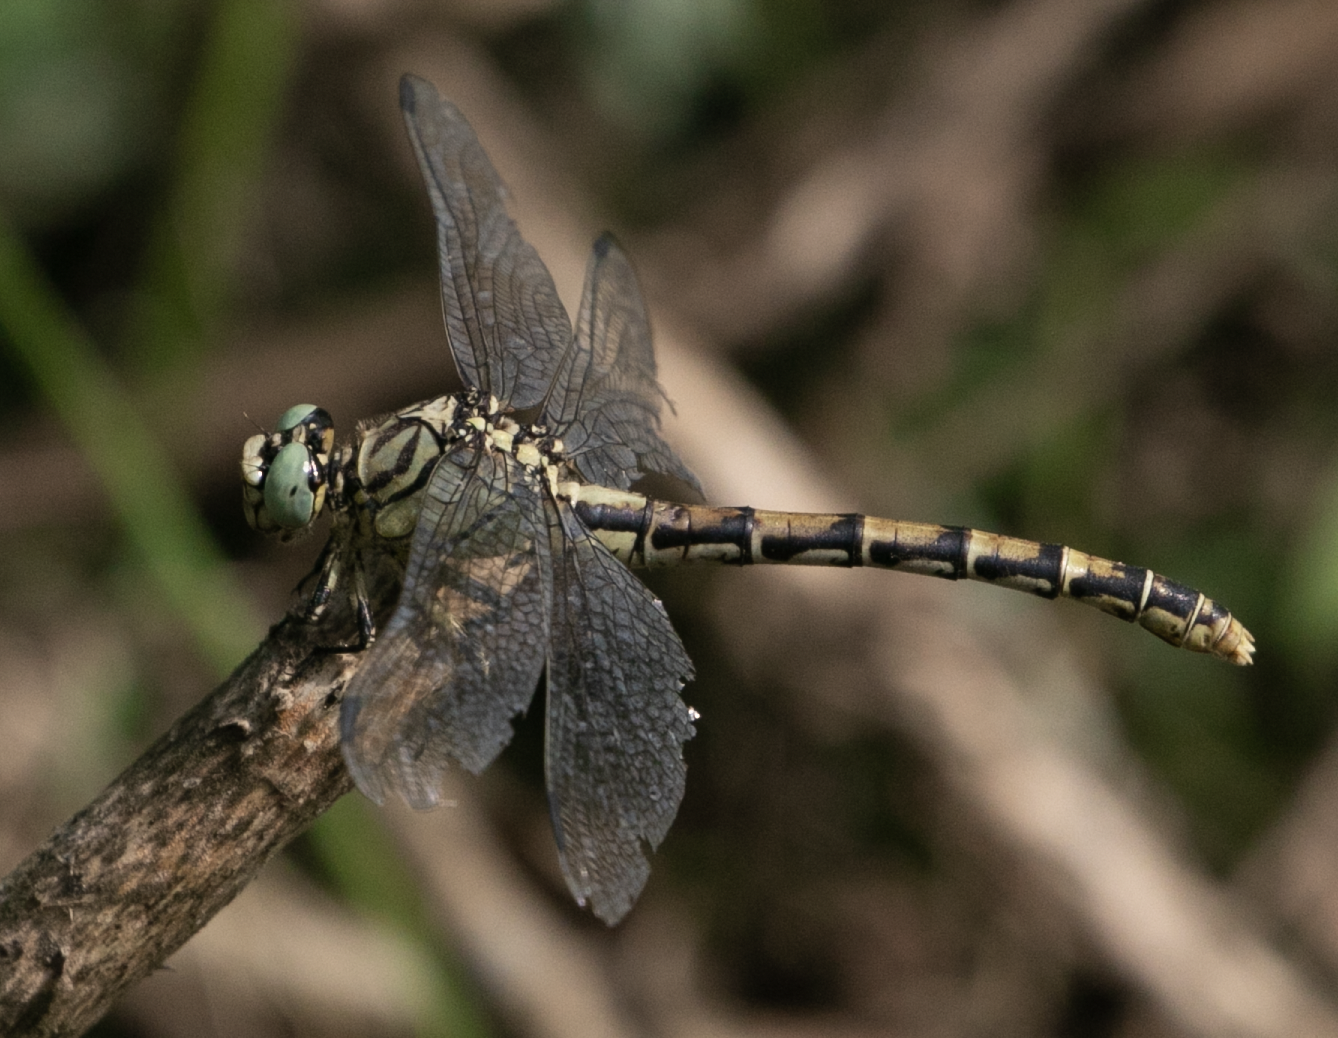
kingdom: Animalia
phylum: Arthropoda
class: Insecta
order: Odonata
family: Gomphidae
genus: Onychogomphus
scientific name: Onychogomphus forcipatus
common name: Small pincertail
